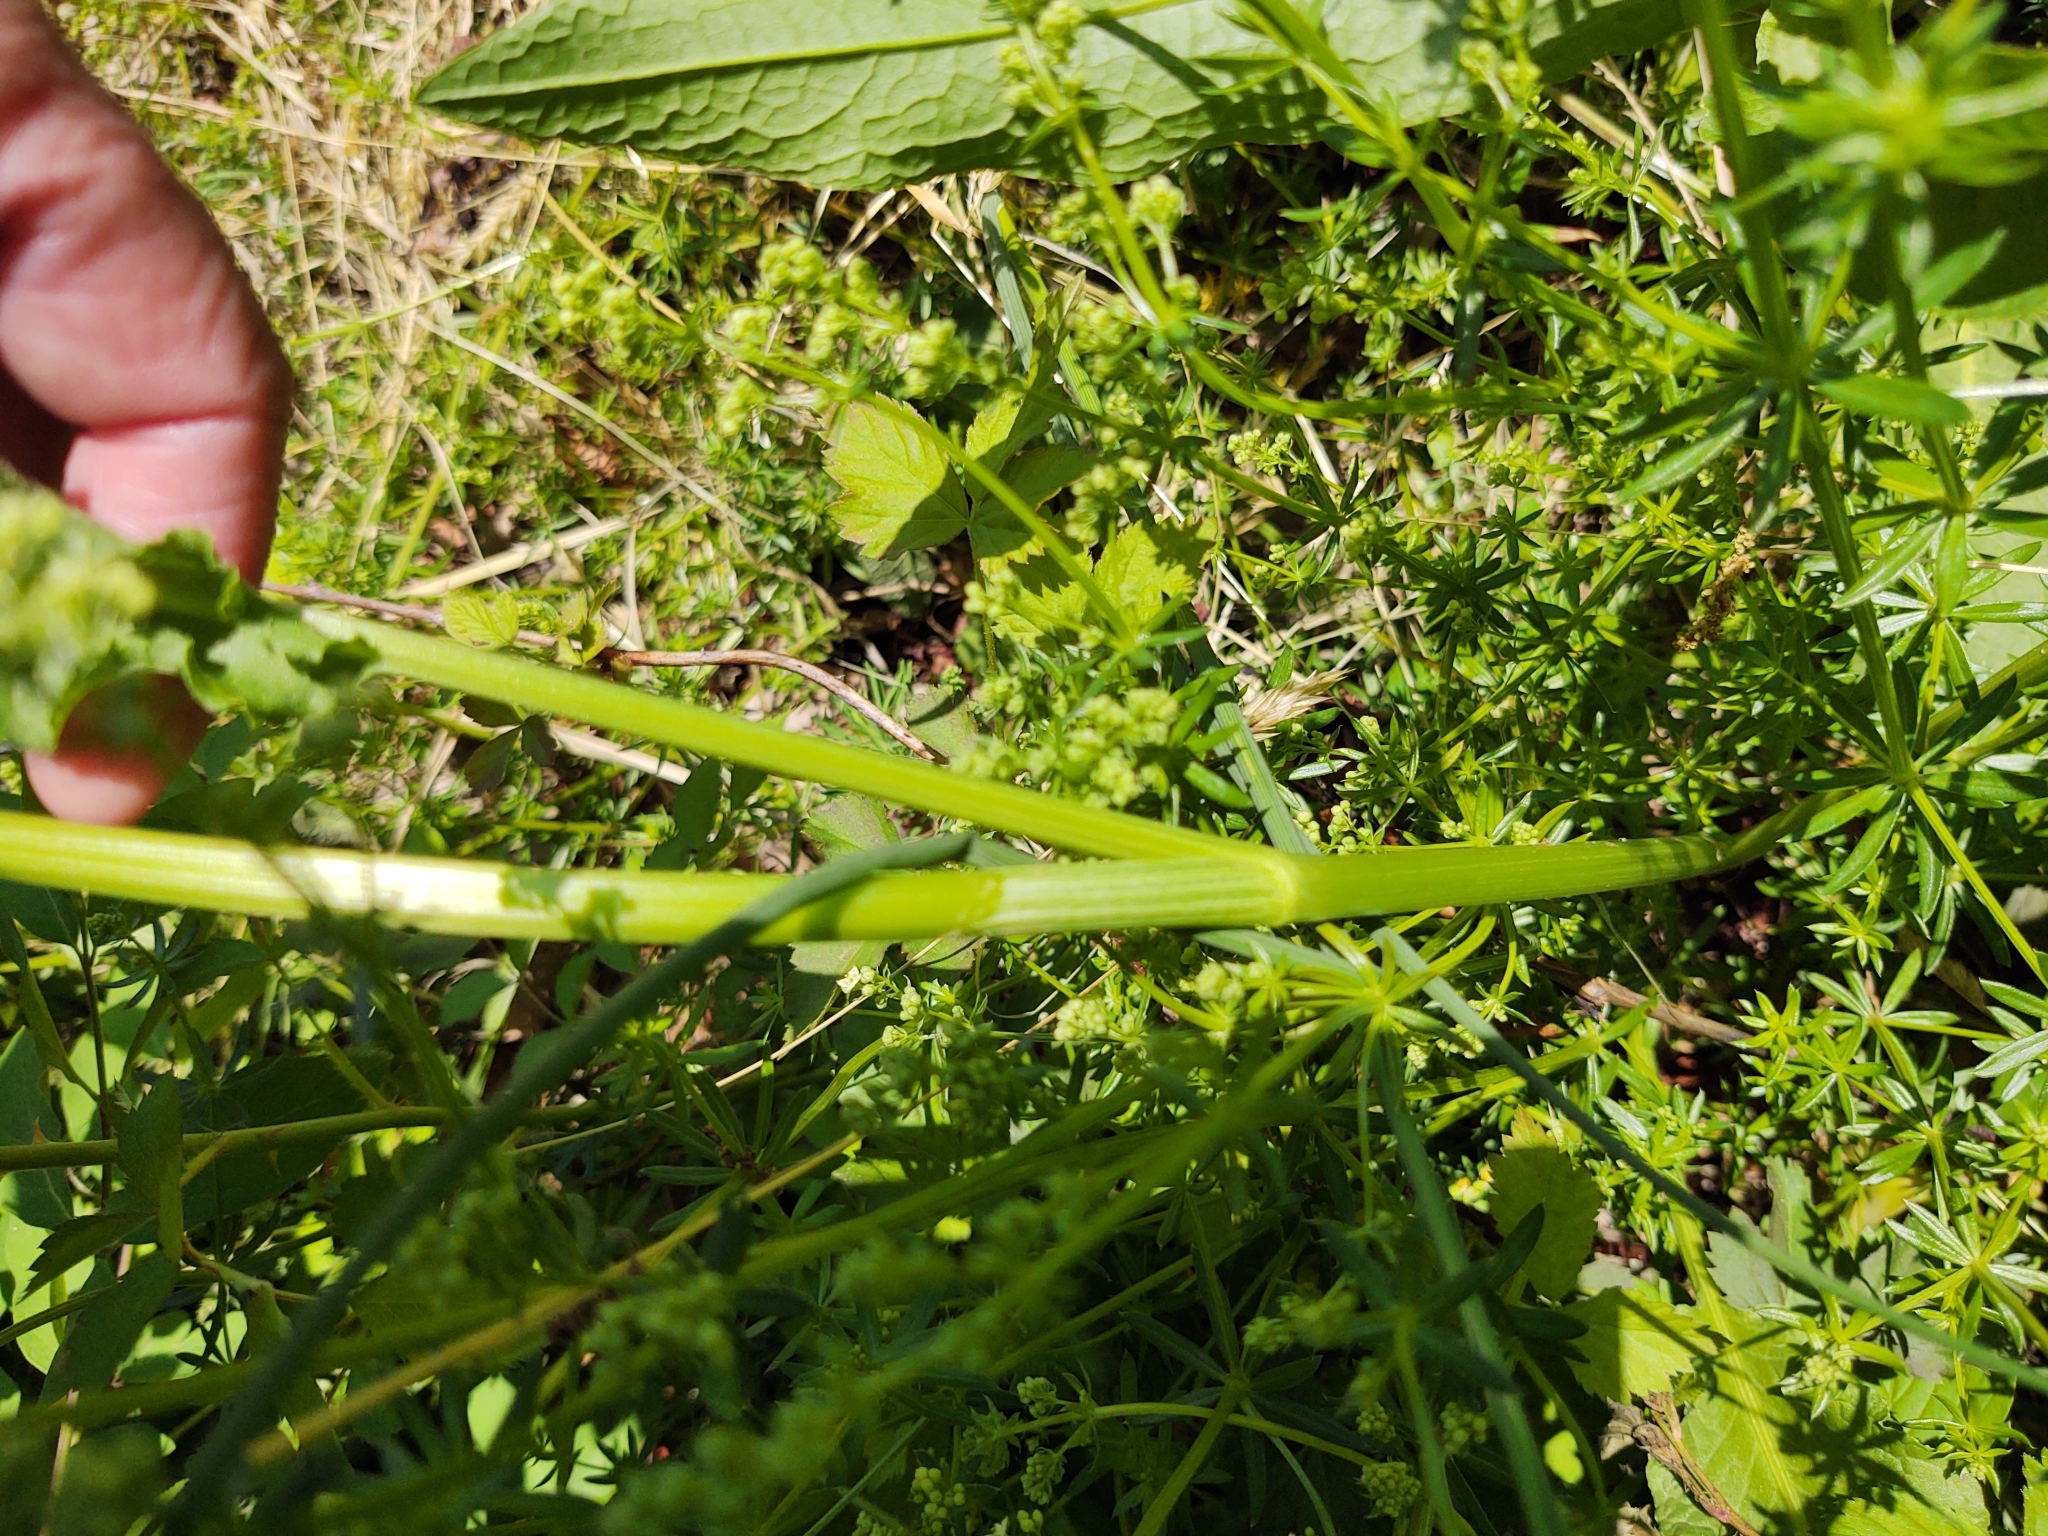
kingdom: Plantae
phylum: Tracheophyta
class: Magnoliopsida
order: Caryophyllales
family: Polygonaceae
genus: Rumex
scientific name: Rumex crispus
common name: Curled dock
